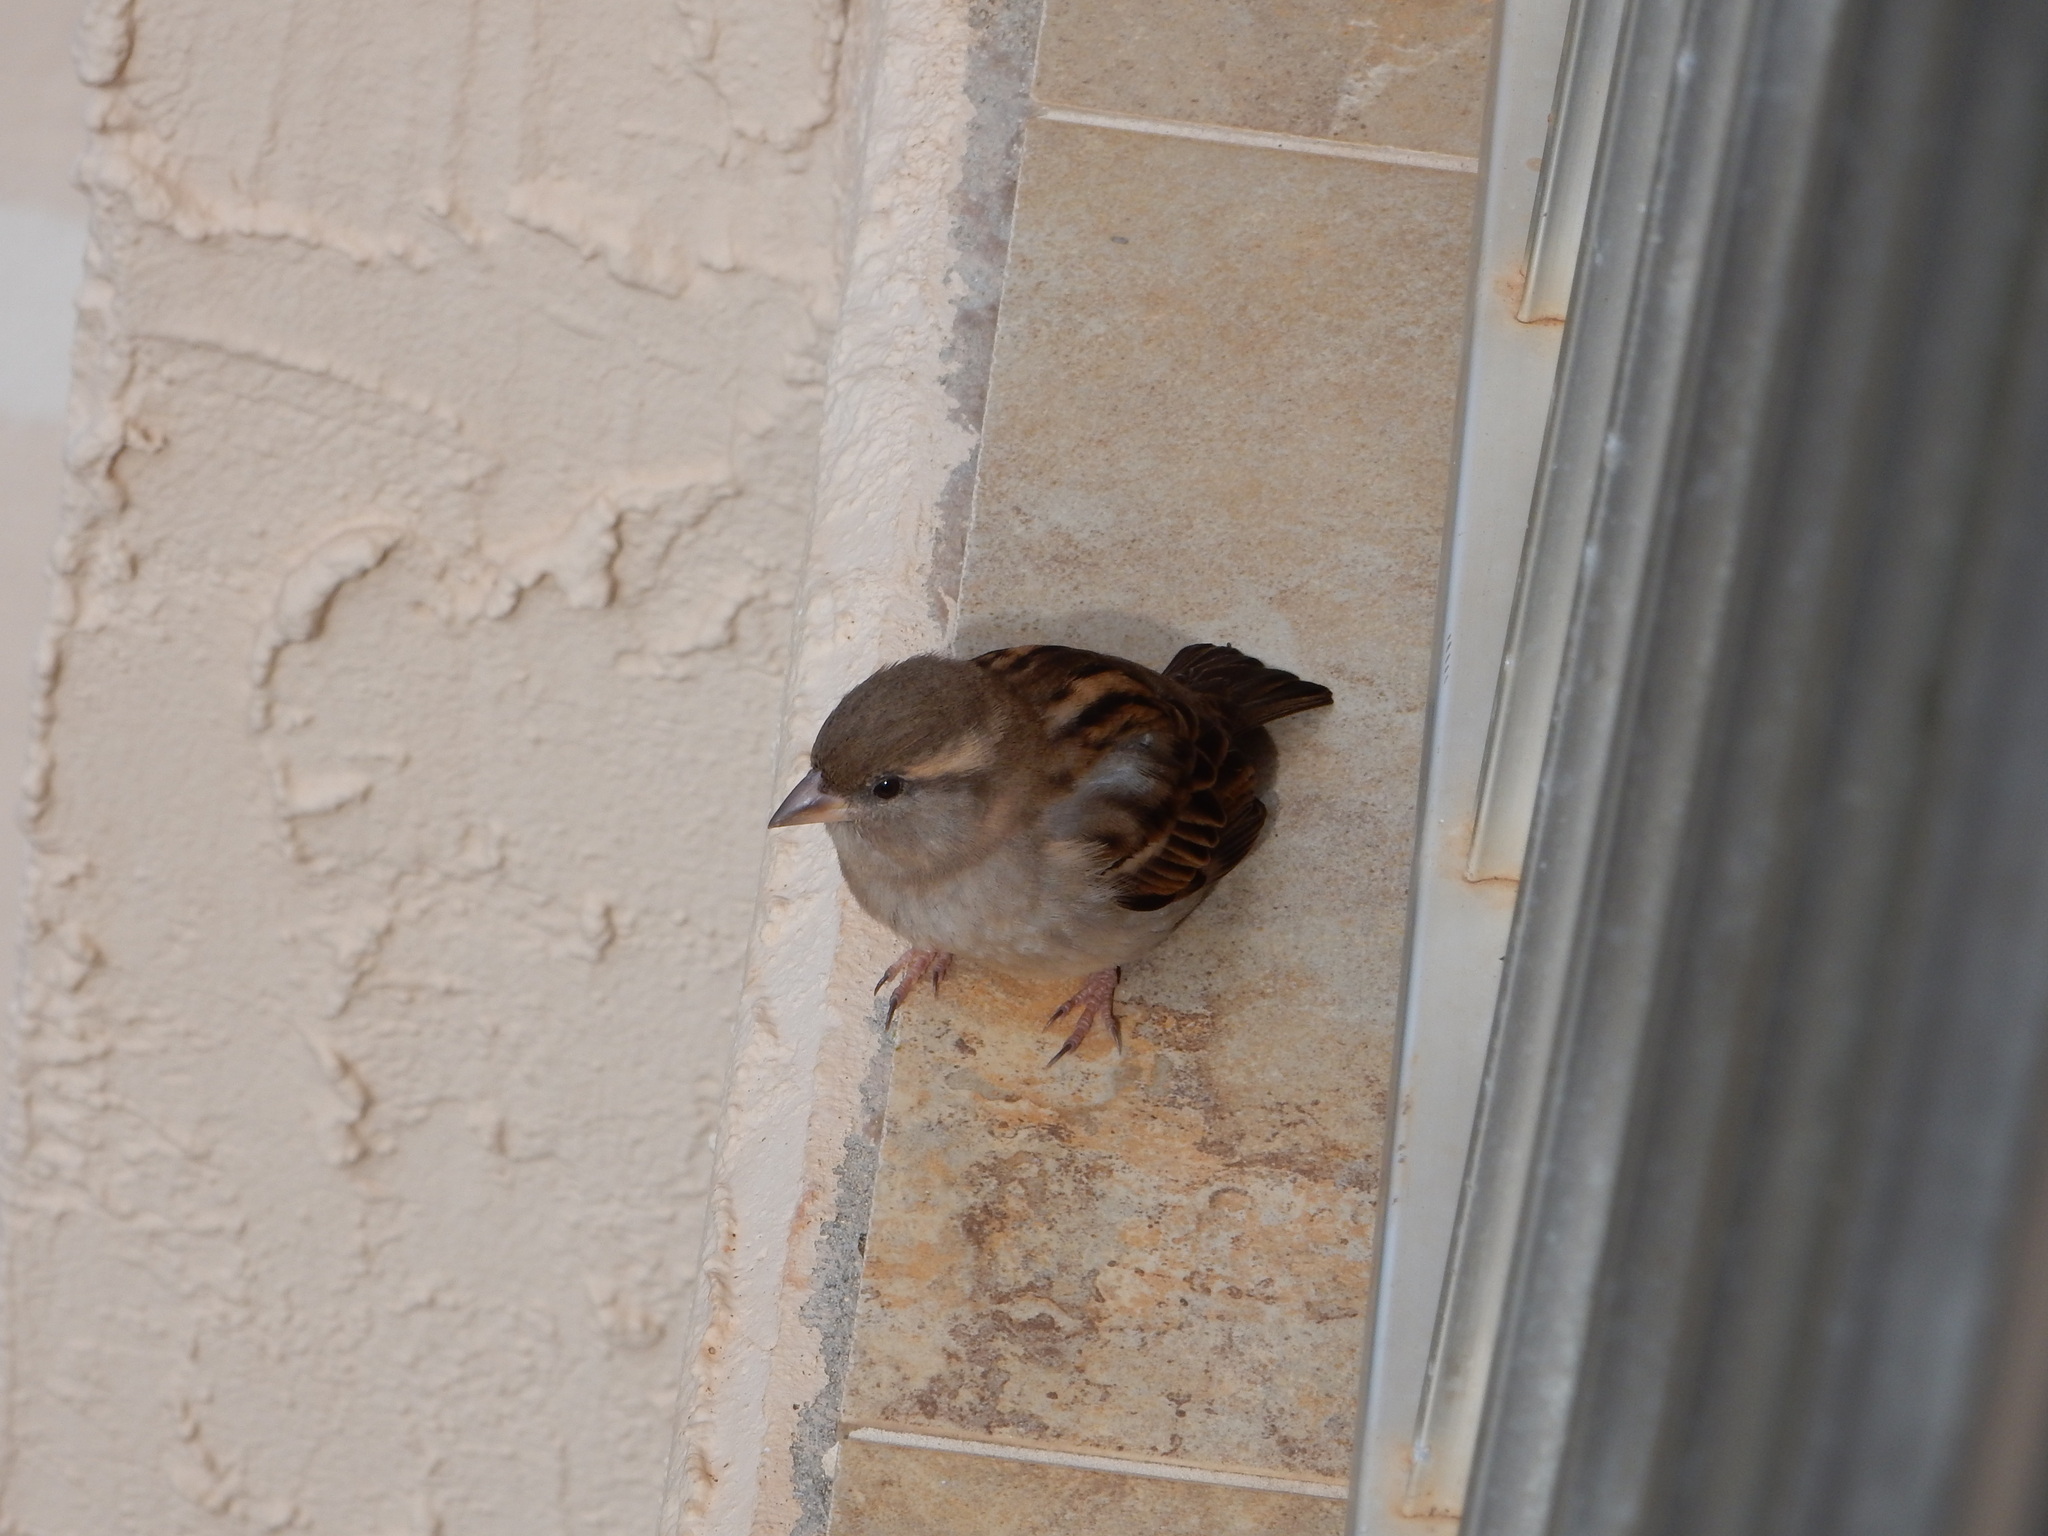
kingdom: Animalia
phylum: Chordata
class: Aves
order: Passeriformes
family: Passeridae
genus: Passer
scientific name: Passer domesticus
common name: House sparrow
